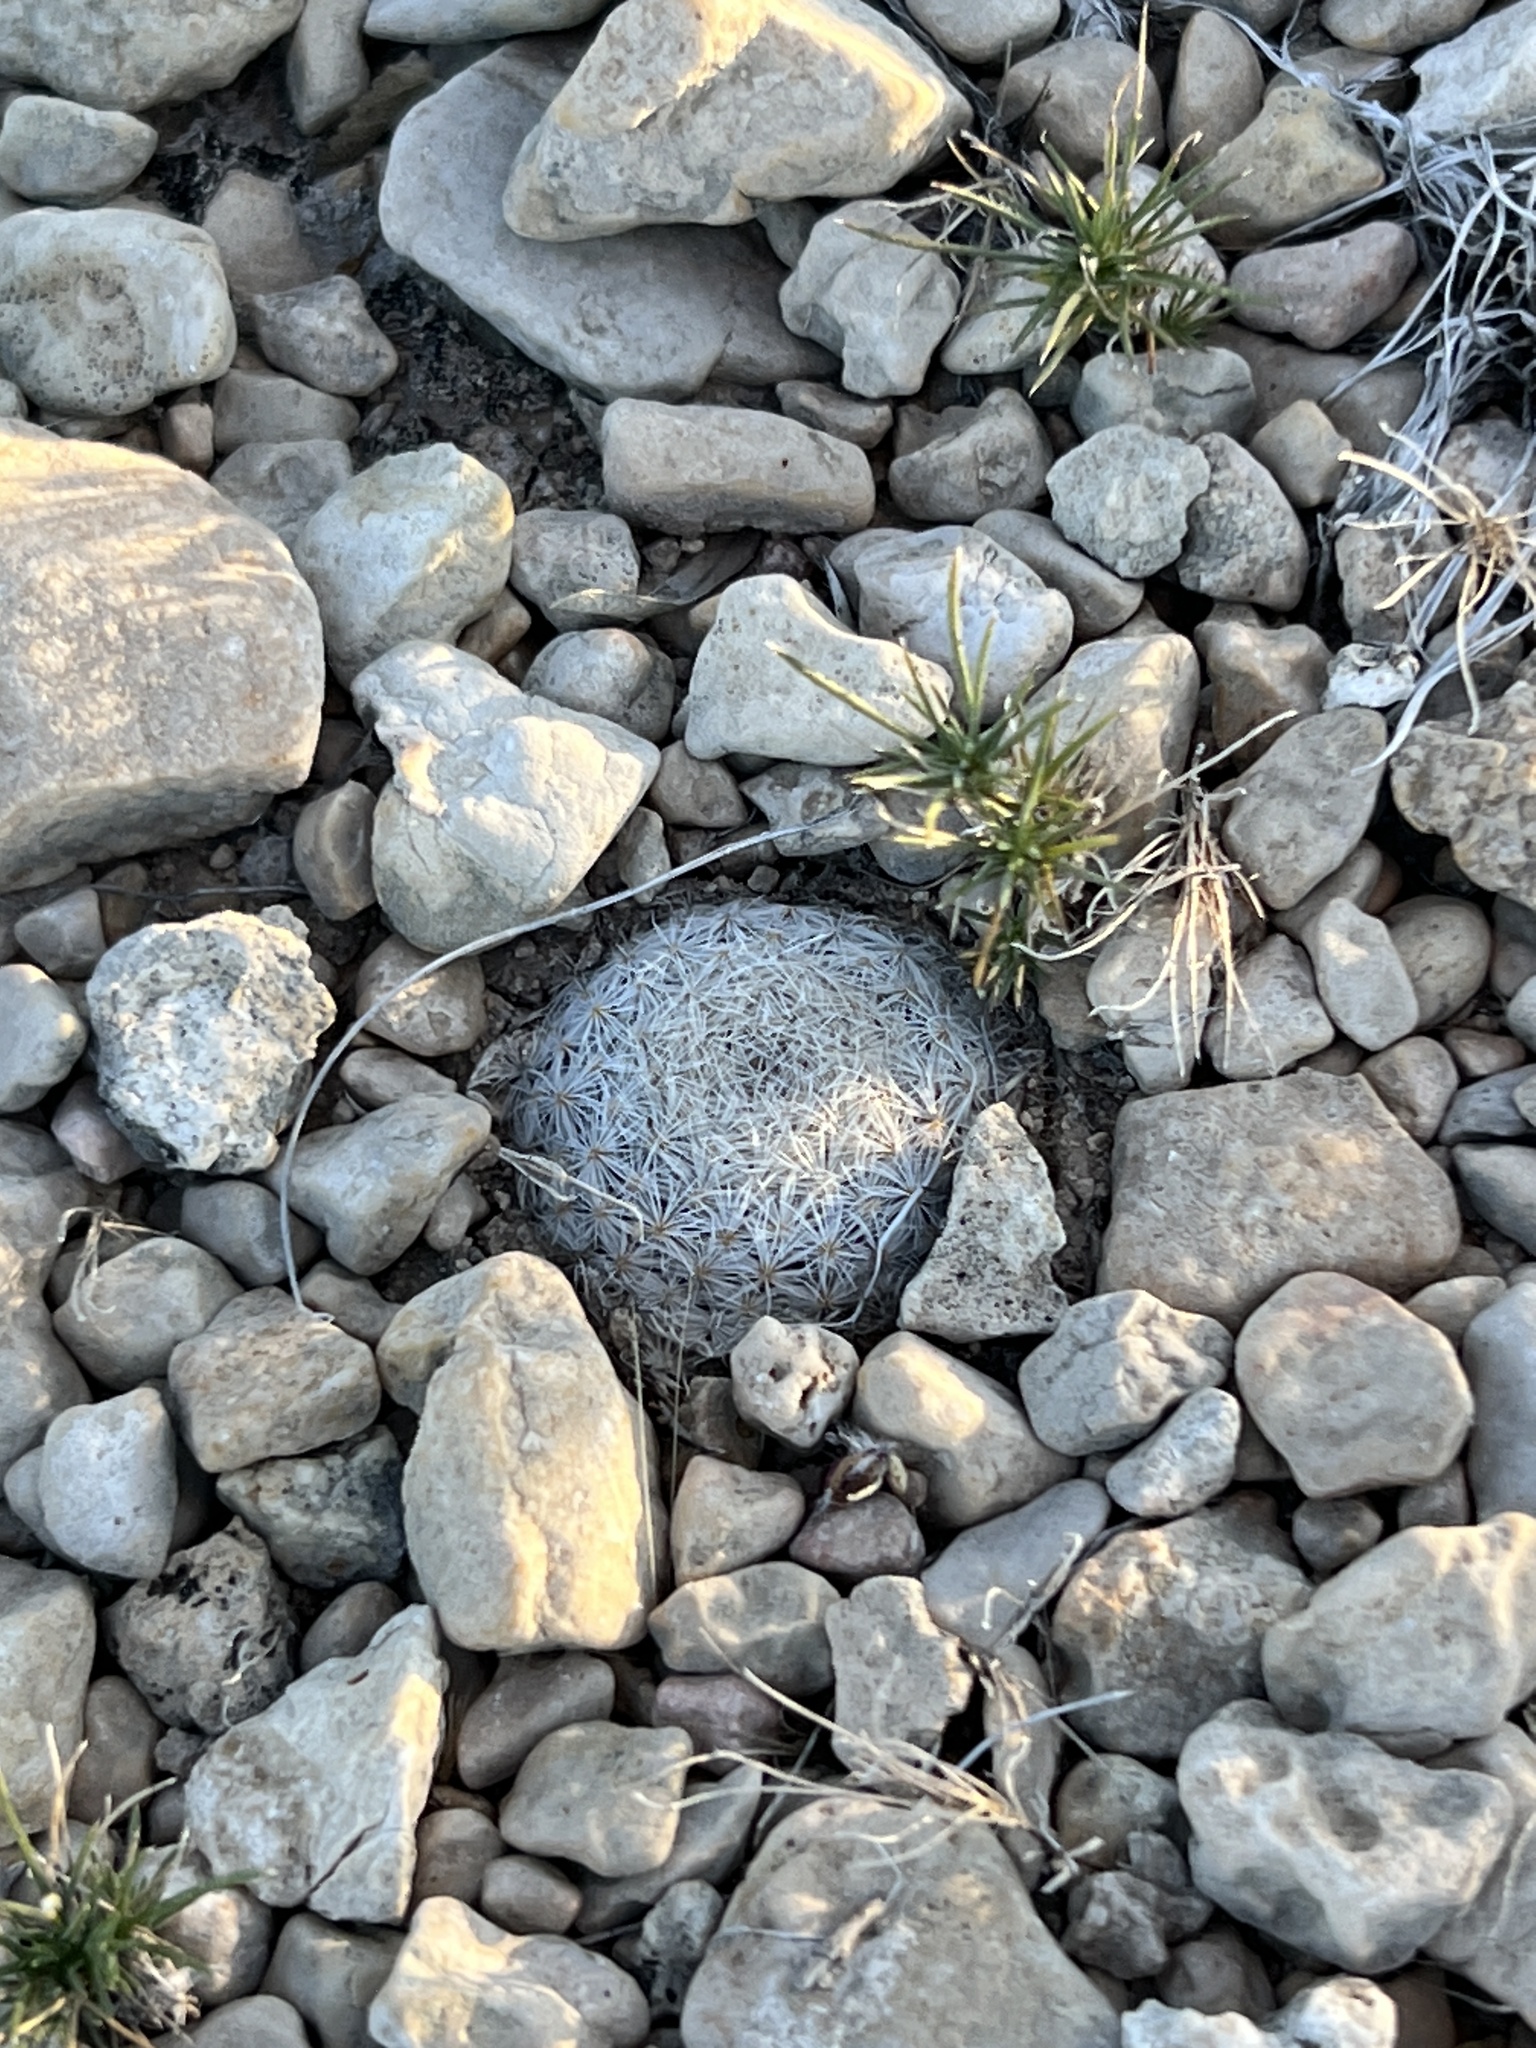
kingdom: Plantae
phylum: Tracheophyta
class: Magnoliopsida
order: Caryophyllales
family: Cactaceae
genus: Mammillaria
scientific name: Mammillaria lasiacantha
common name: Lace-spine nipple cactus
